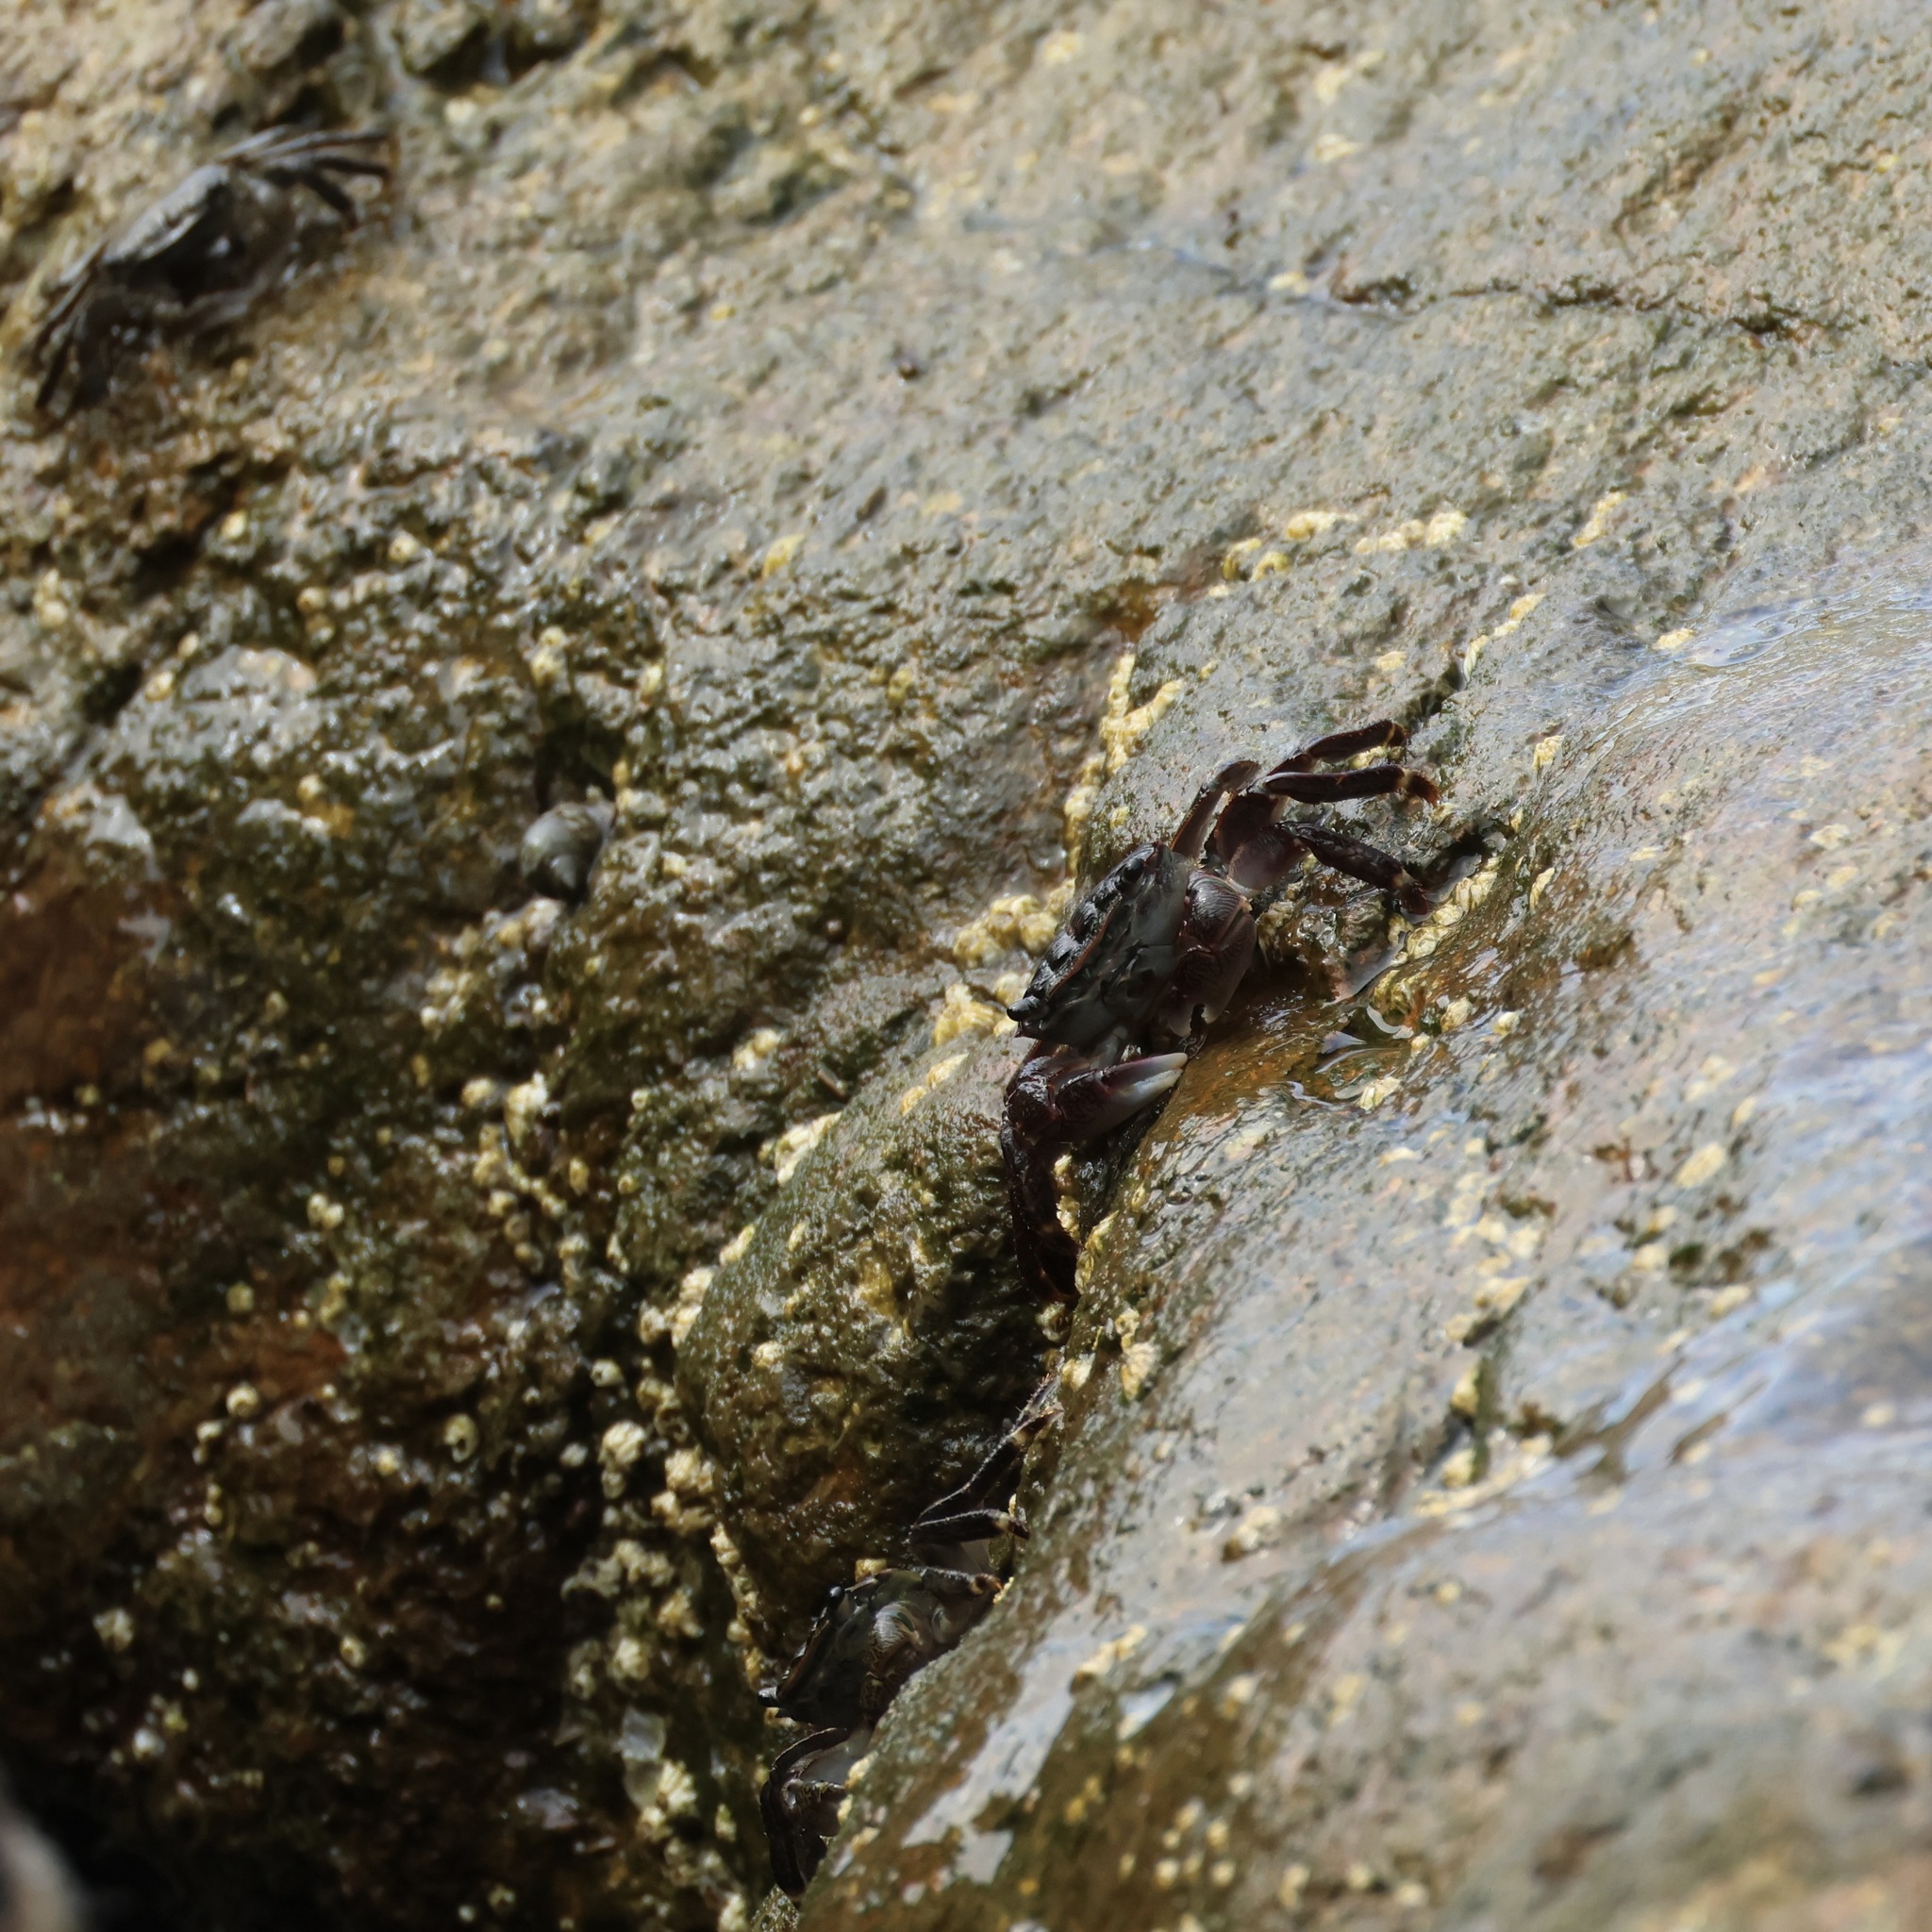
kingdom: Animalia
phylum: Arthropoda
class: Malacostraca
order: Decapoda
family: Grapsidae
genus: Pachygrapsus
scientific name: Pachygrapsus crassipes
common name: Striped shore crab
